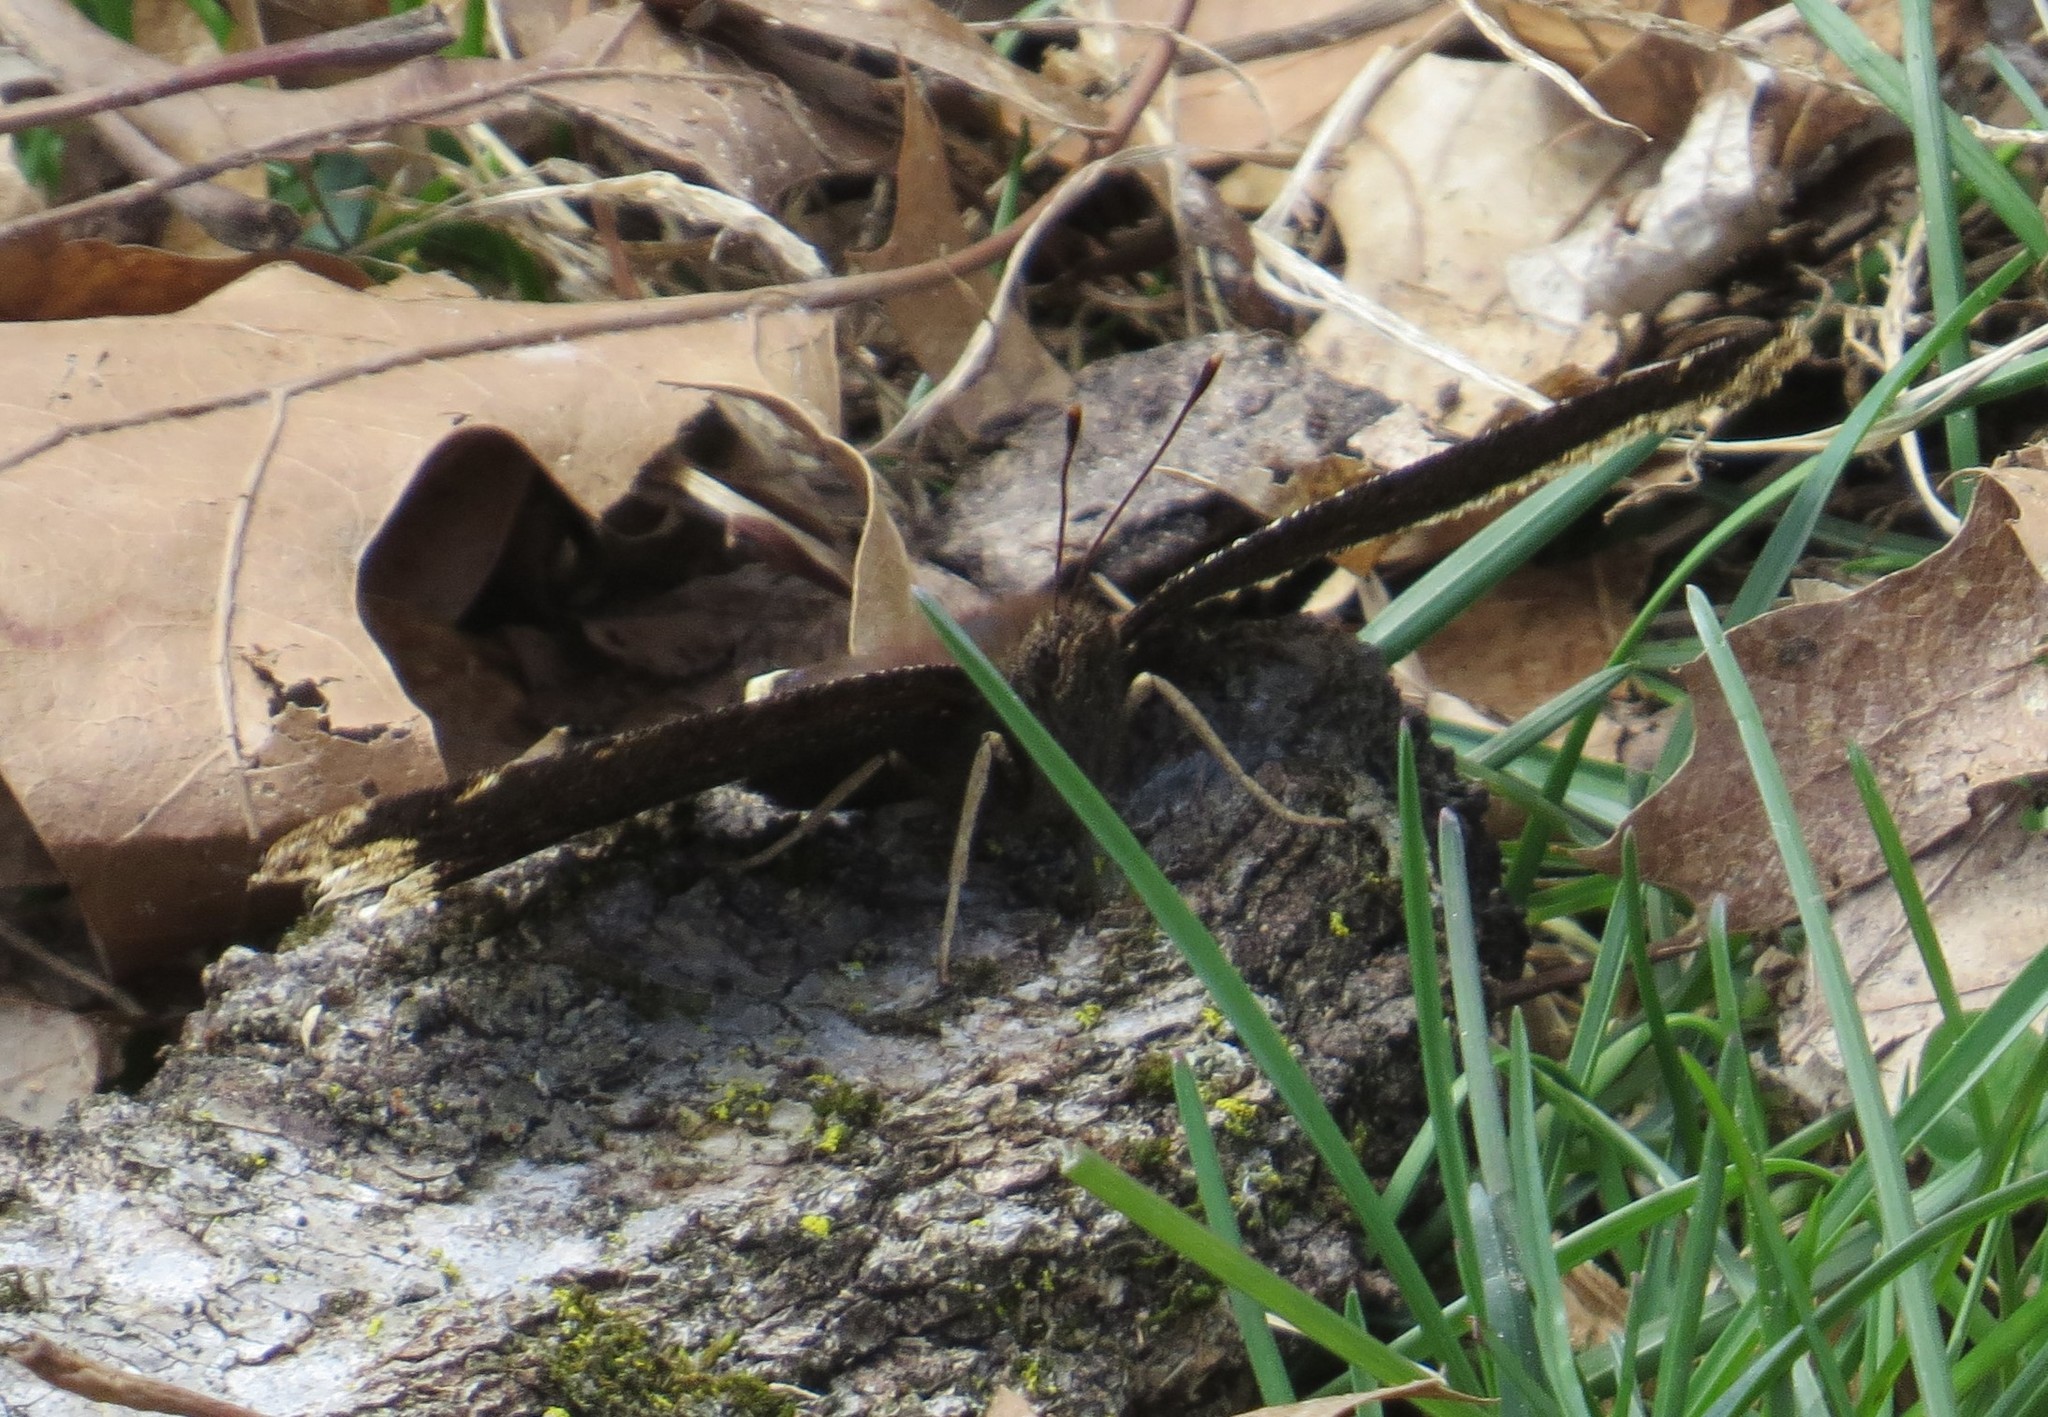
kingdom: Animalia
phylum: Arthropoda
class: Insecta
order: Lepidoptera
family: Nymphalidae
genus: Nymphalis
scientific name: Nymphalis antiopa
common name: Camberwell beauty
